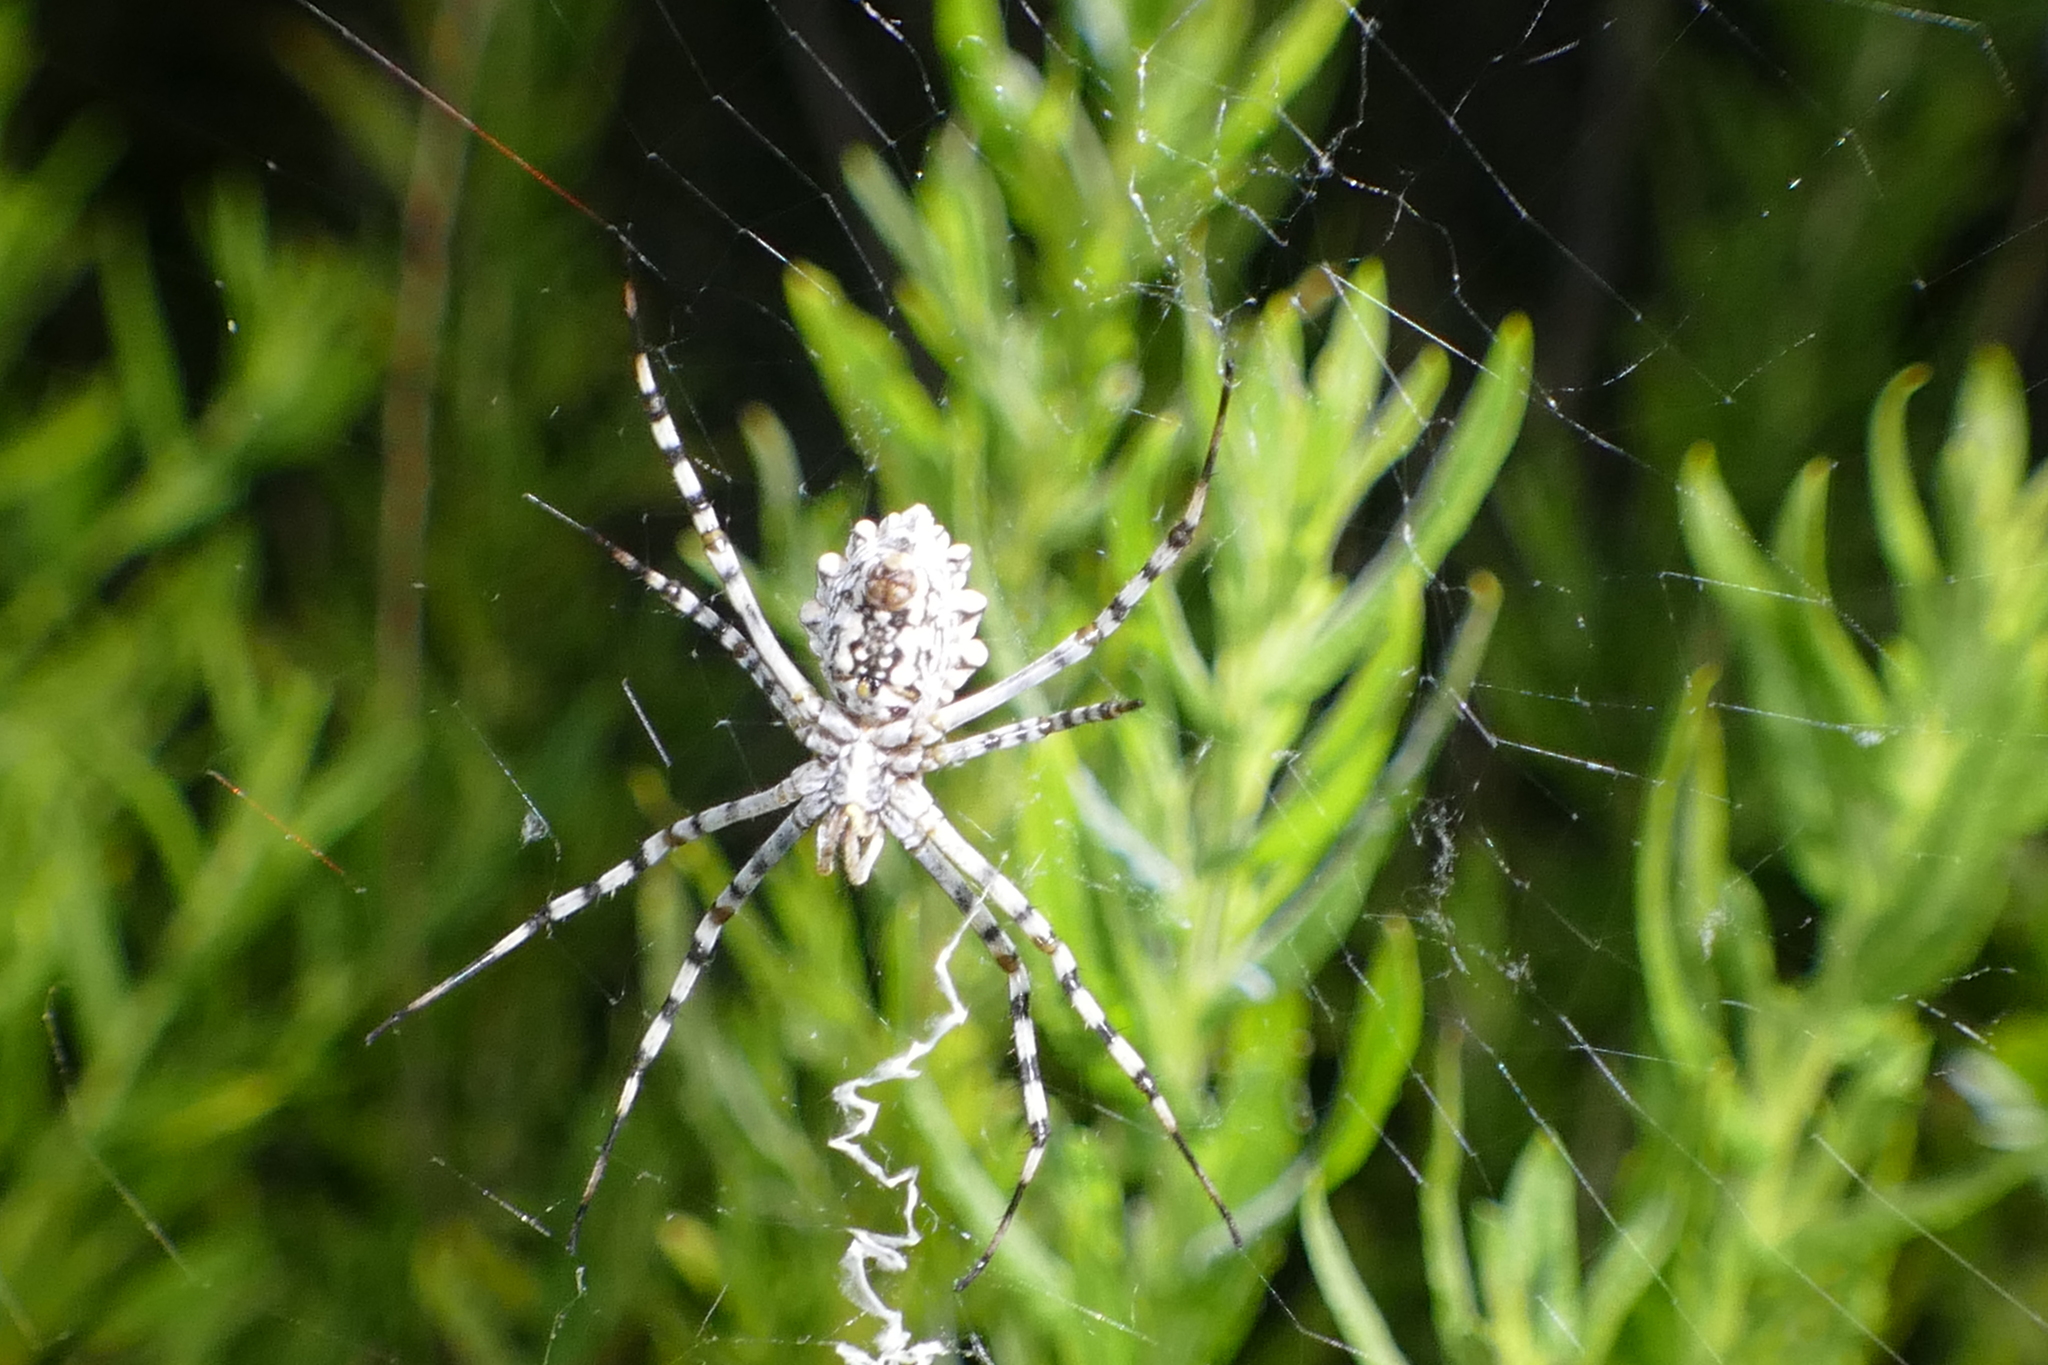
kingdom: Animalia
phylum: Arthropoda
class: Arachnida
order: Araneae
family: Araneidae
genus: Argiope
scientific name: Argiope lobata
